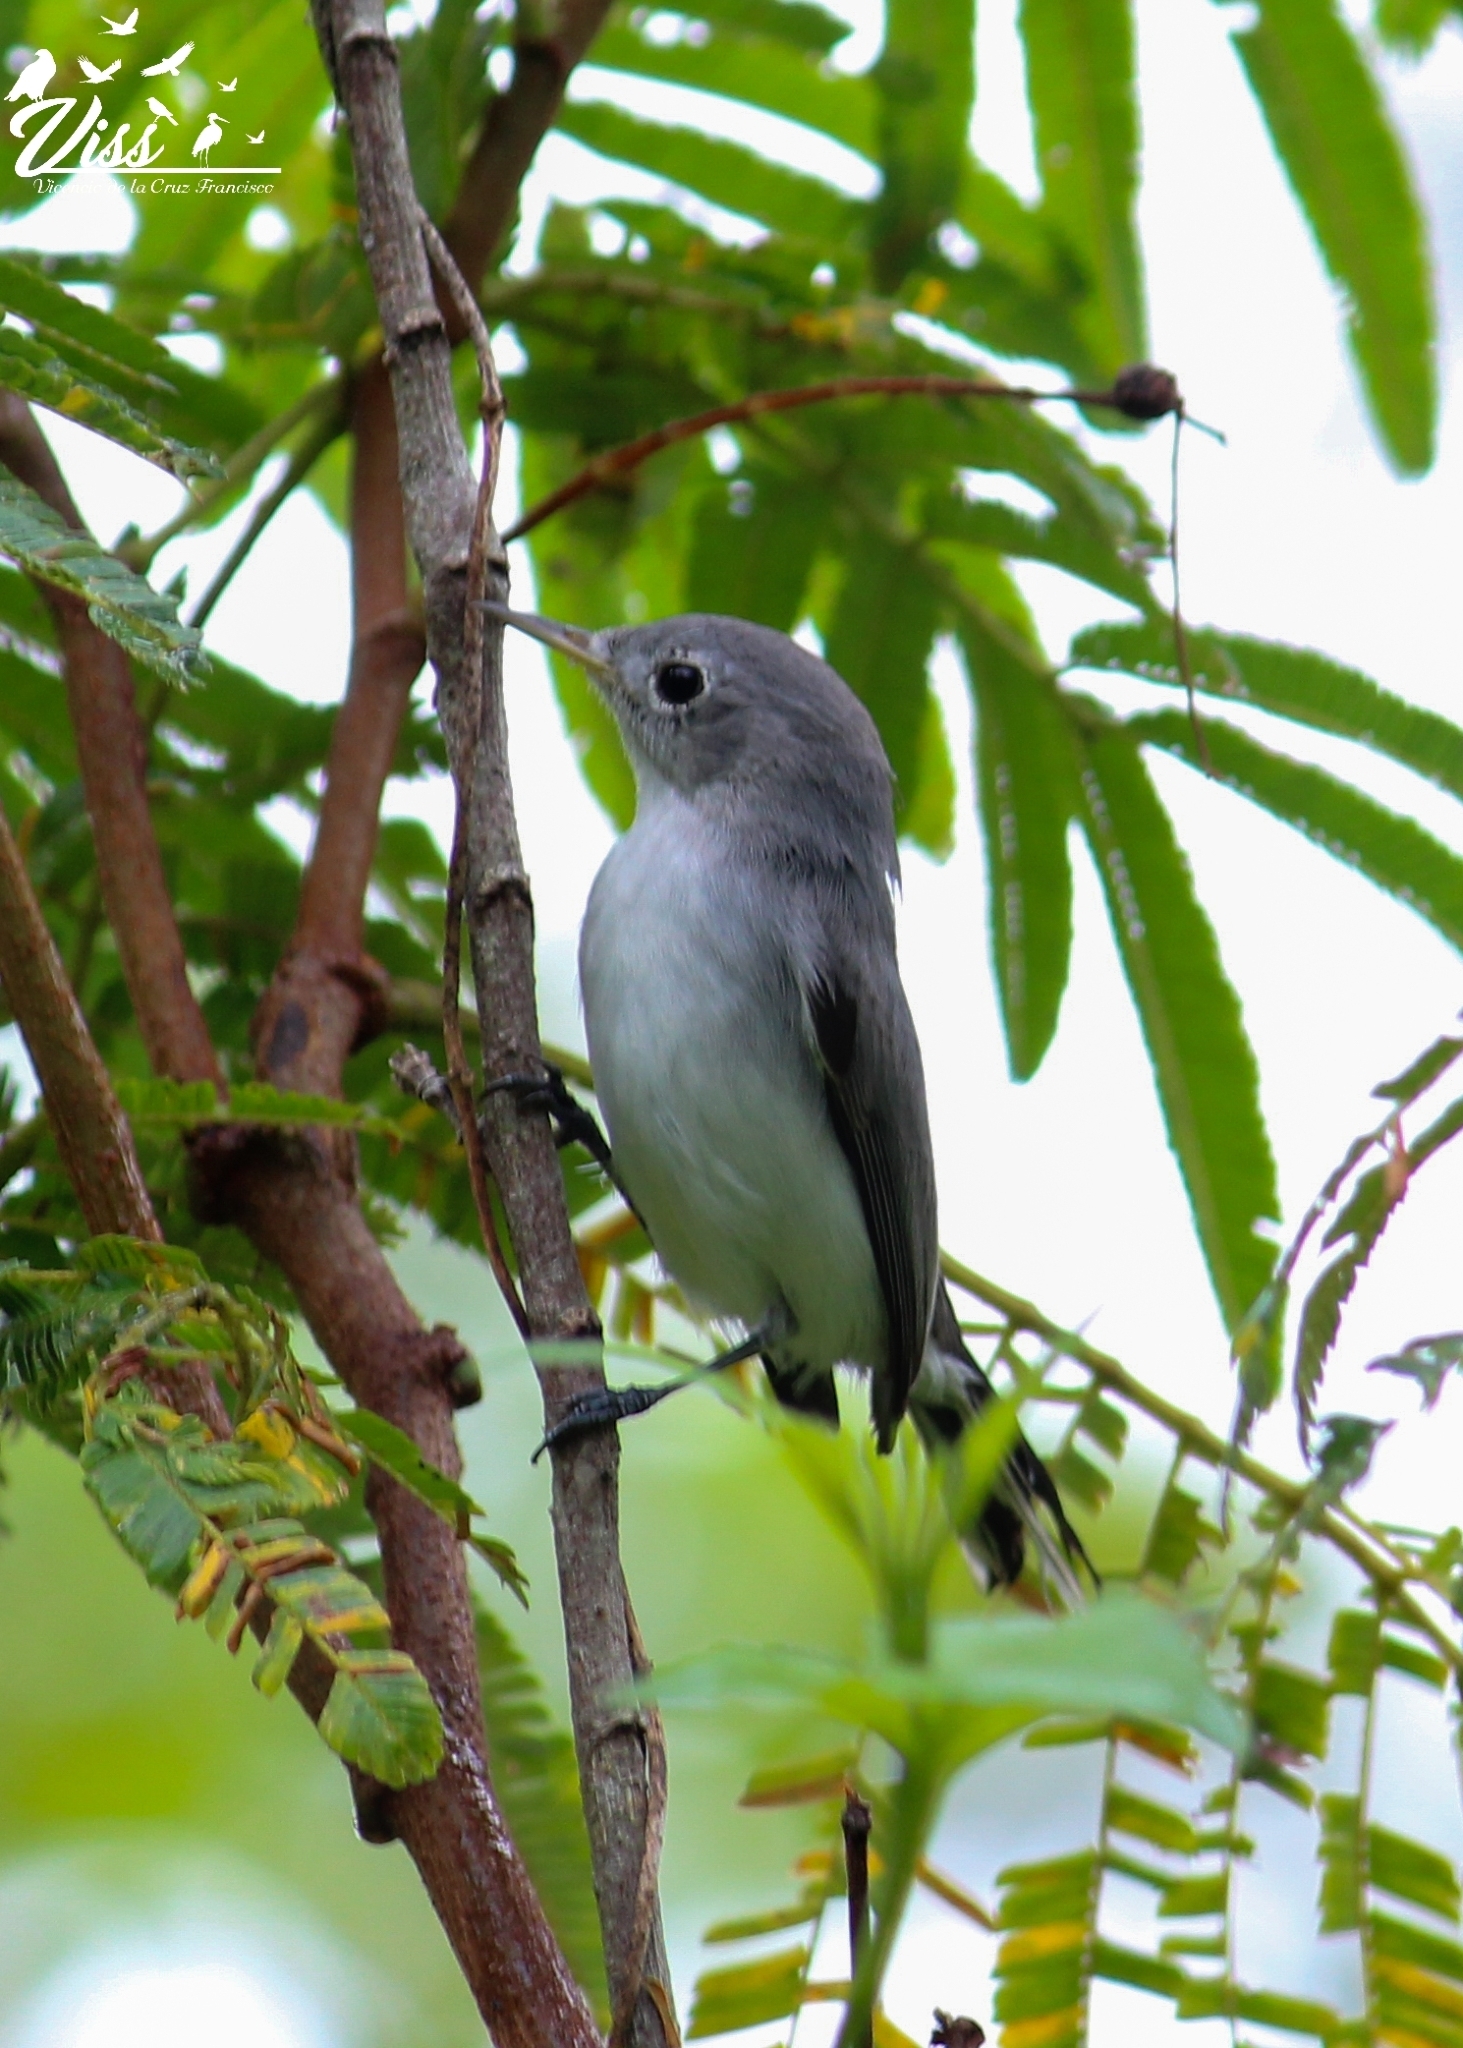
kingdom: Animalia
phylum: Chordata
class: Aves
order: Passeriformes
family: Polioptilidae
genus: Polioptila
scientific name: Polioptila caerulea
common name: Blue-gray gnatcatcher
